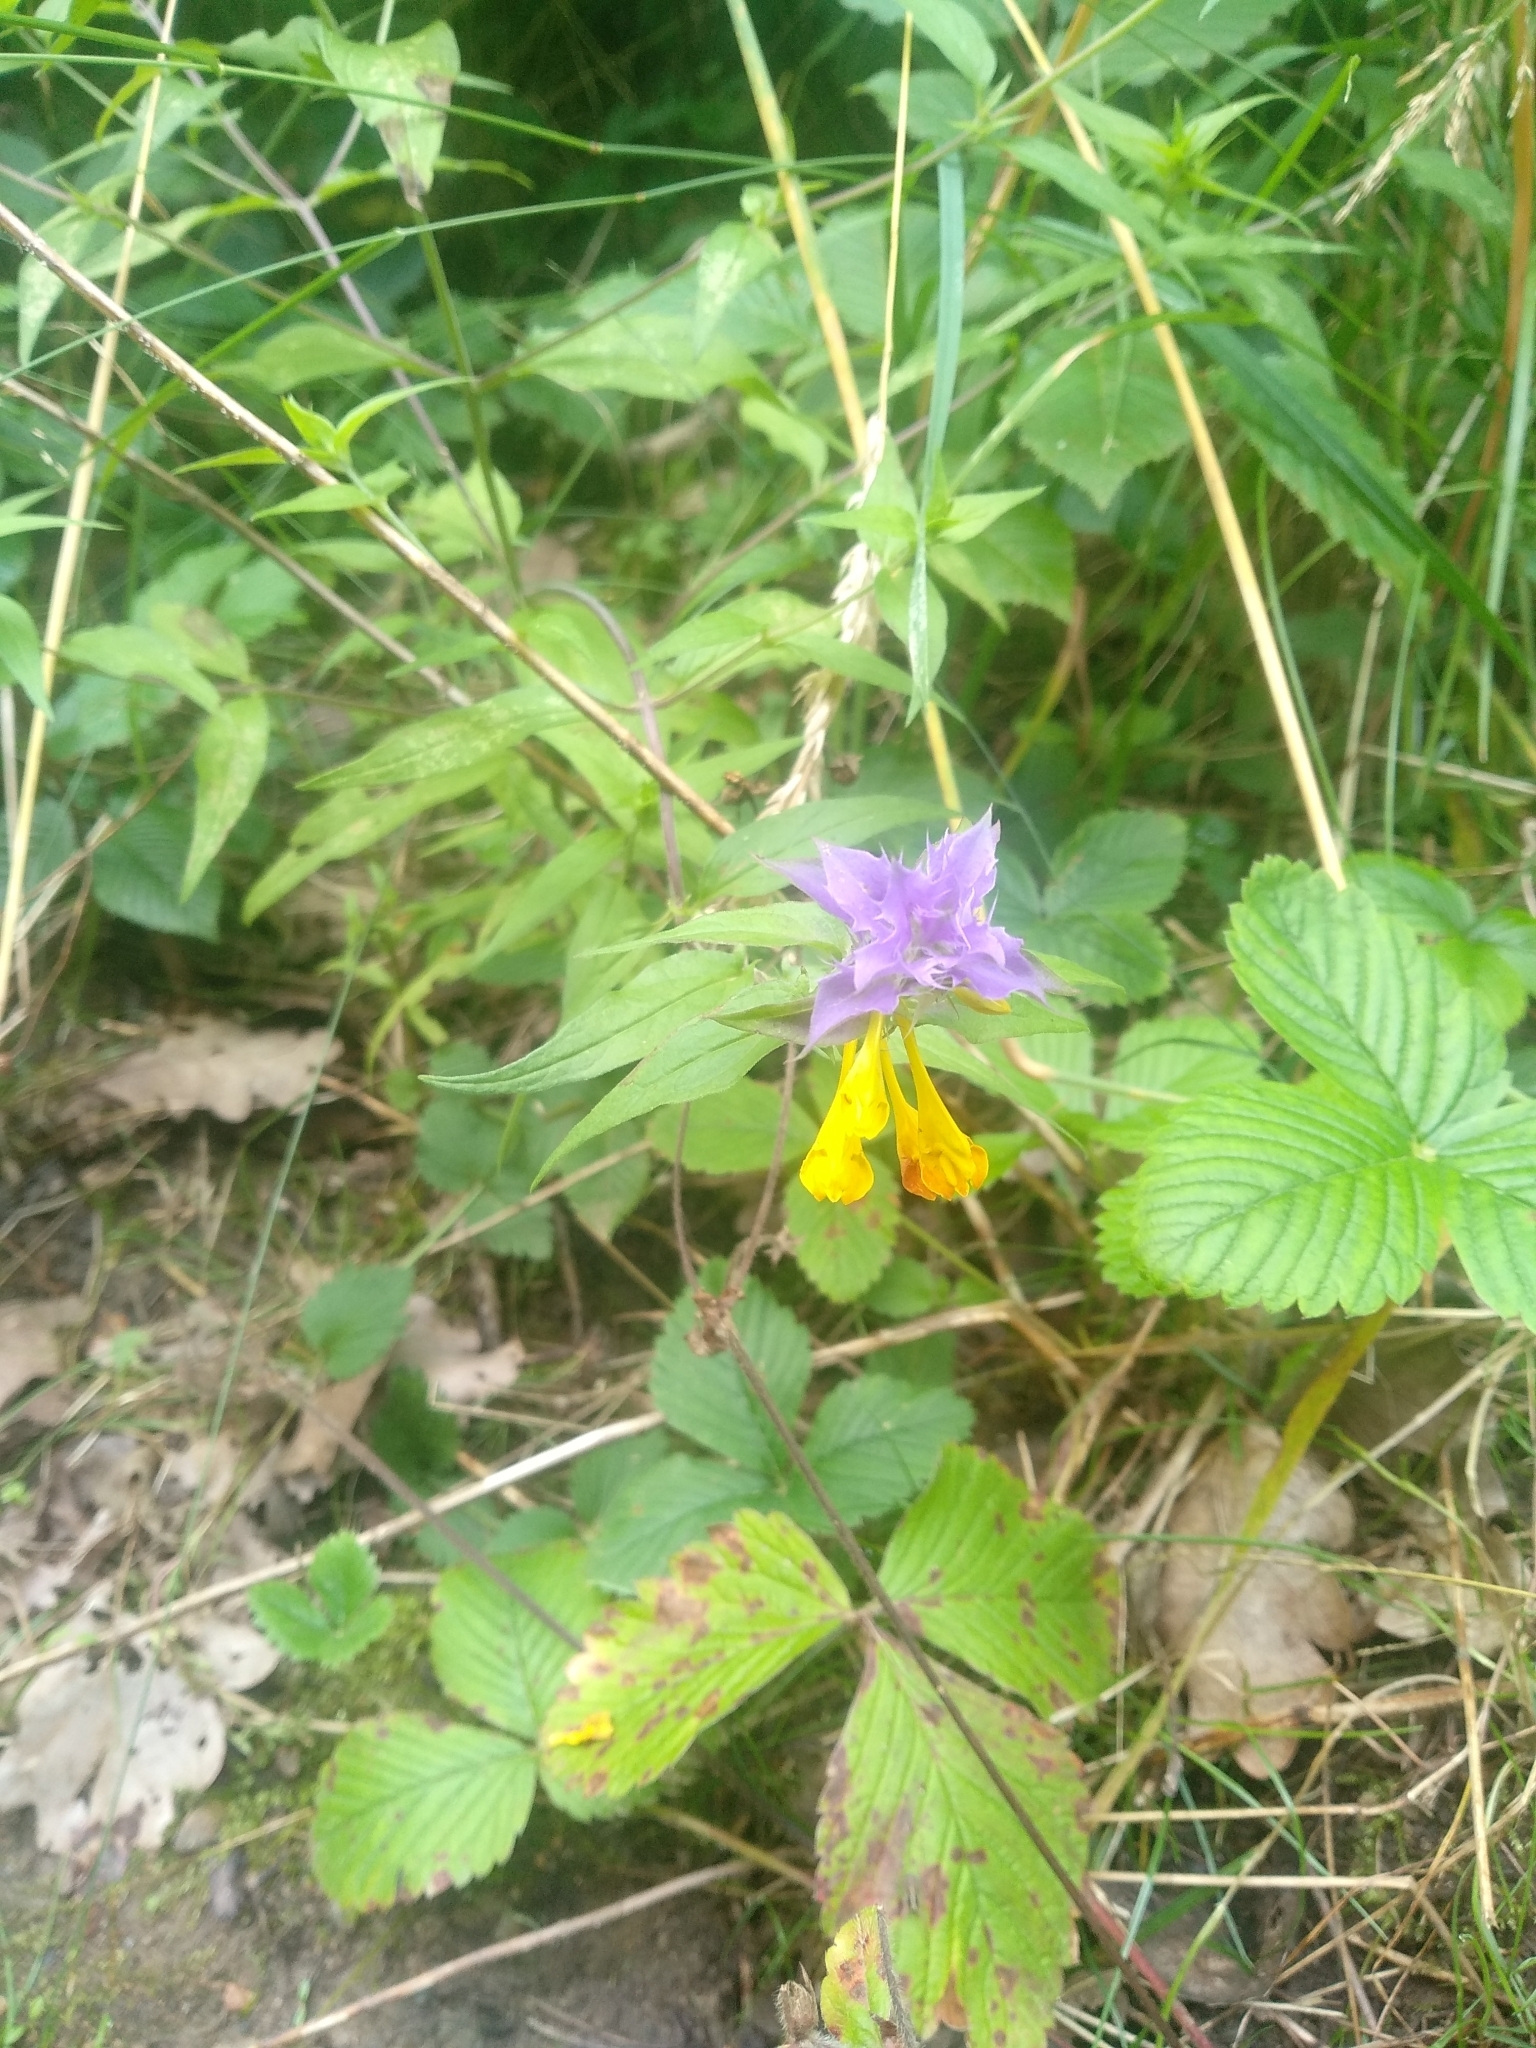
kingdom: Plantae
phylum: Tracheophyta
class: Magnoliopsida
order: Lamiales
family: Orobanchaceae
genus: Melampyrum
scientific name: Melampyrum nemorosum
